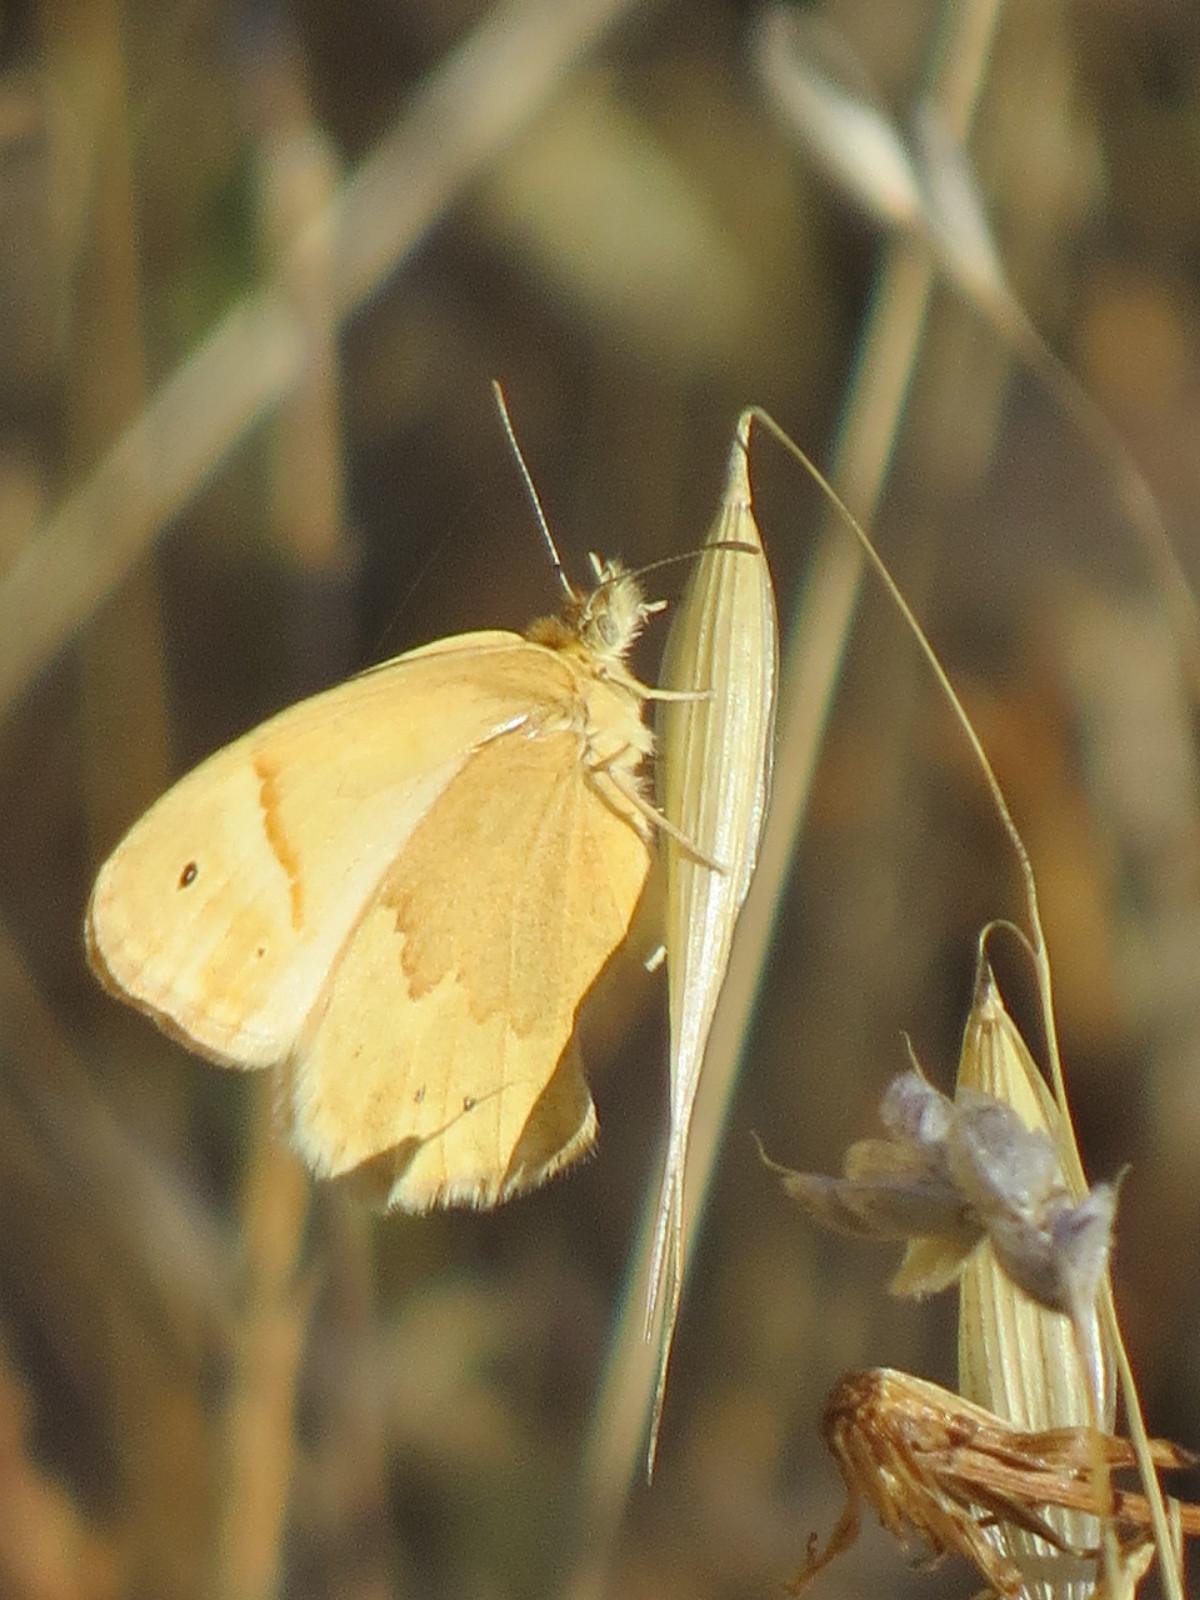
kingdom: Animalia
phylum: Arthropoda
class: Insecta
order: Lepidoptera
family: Nymphalidae
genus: Coenonympha
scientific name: Coenonympha california
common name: Common ringlet
